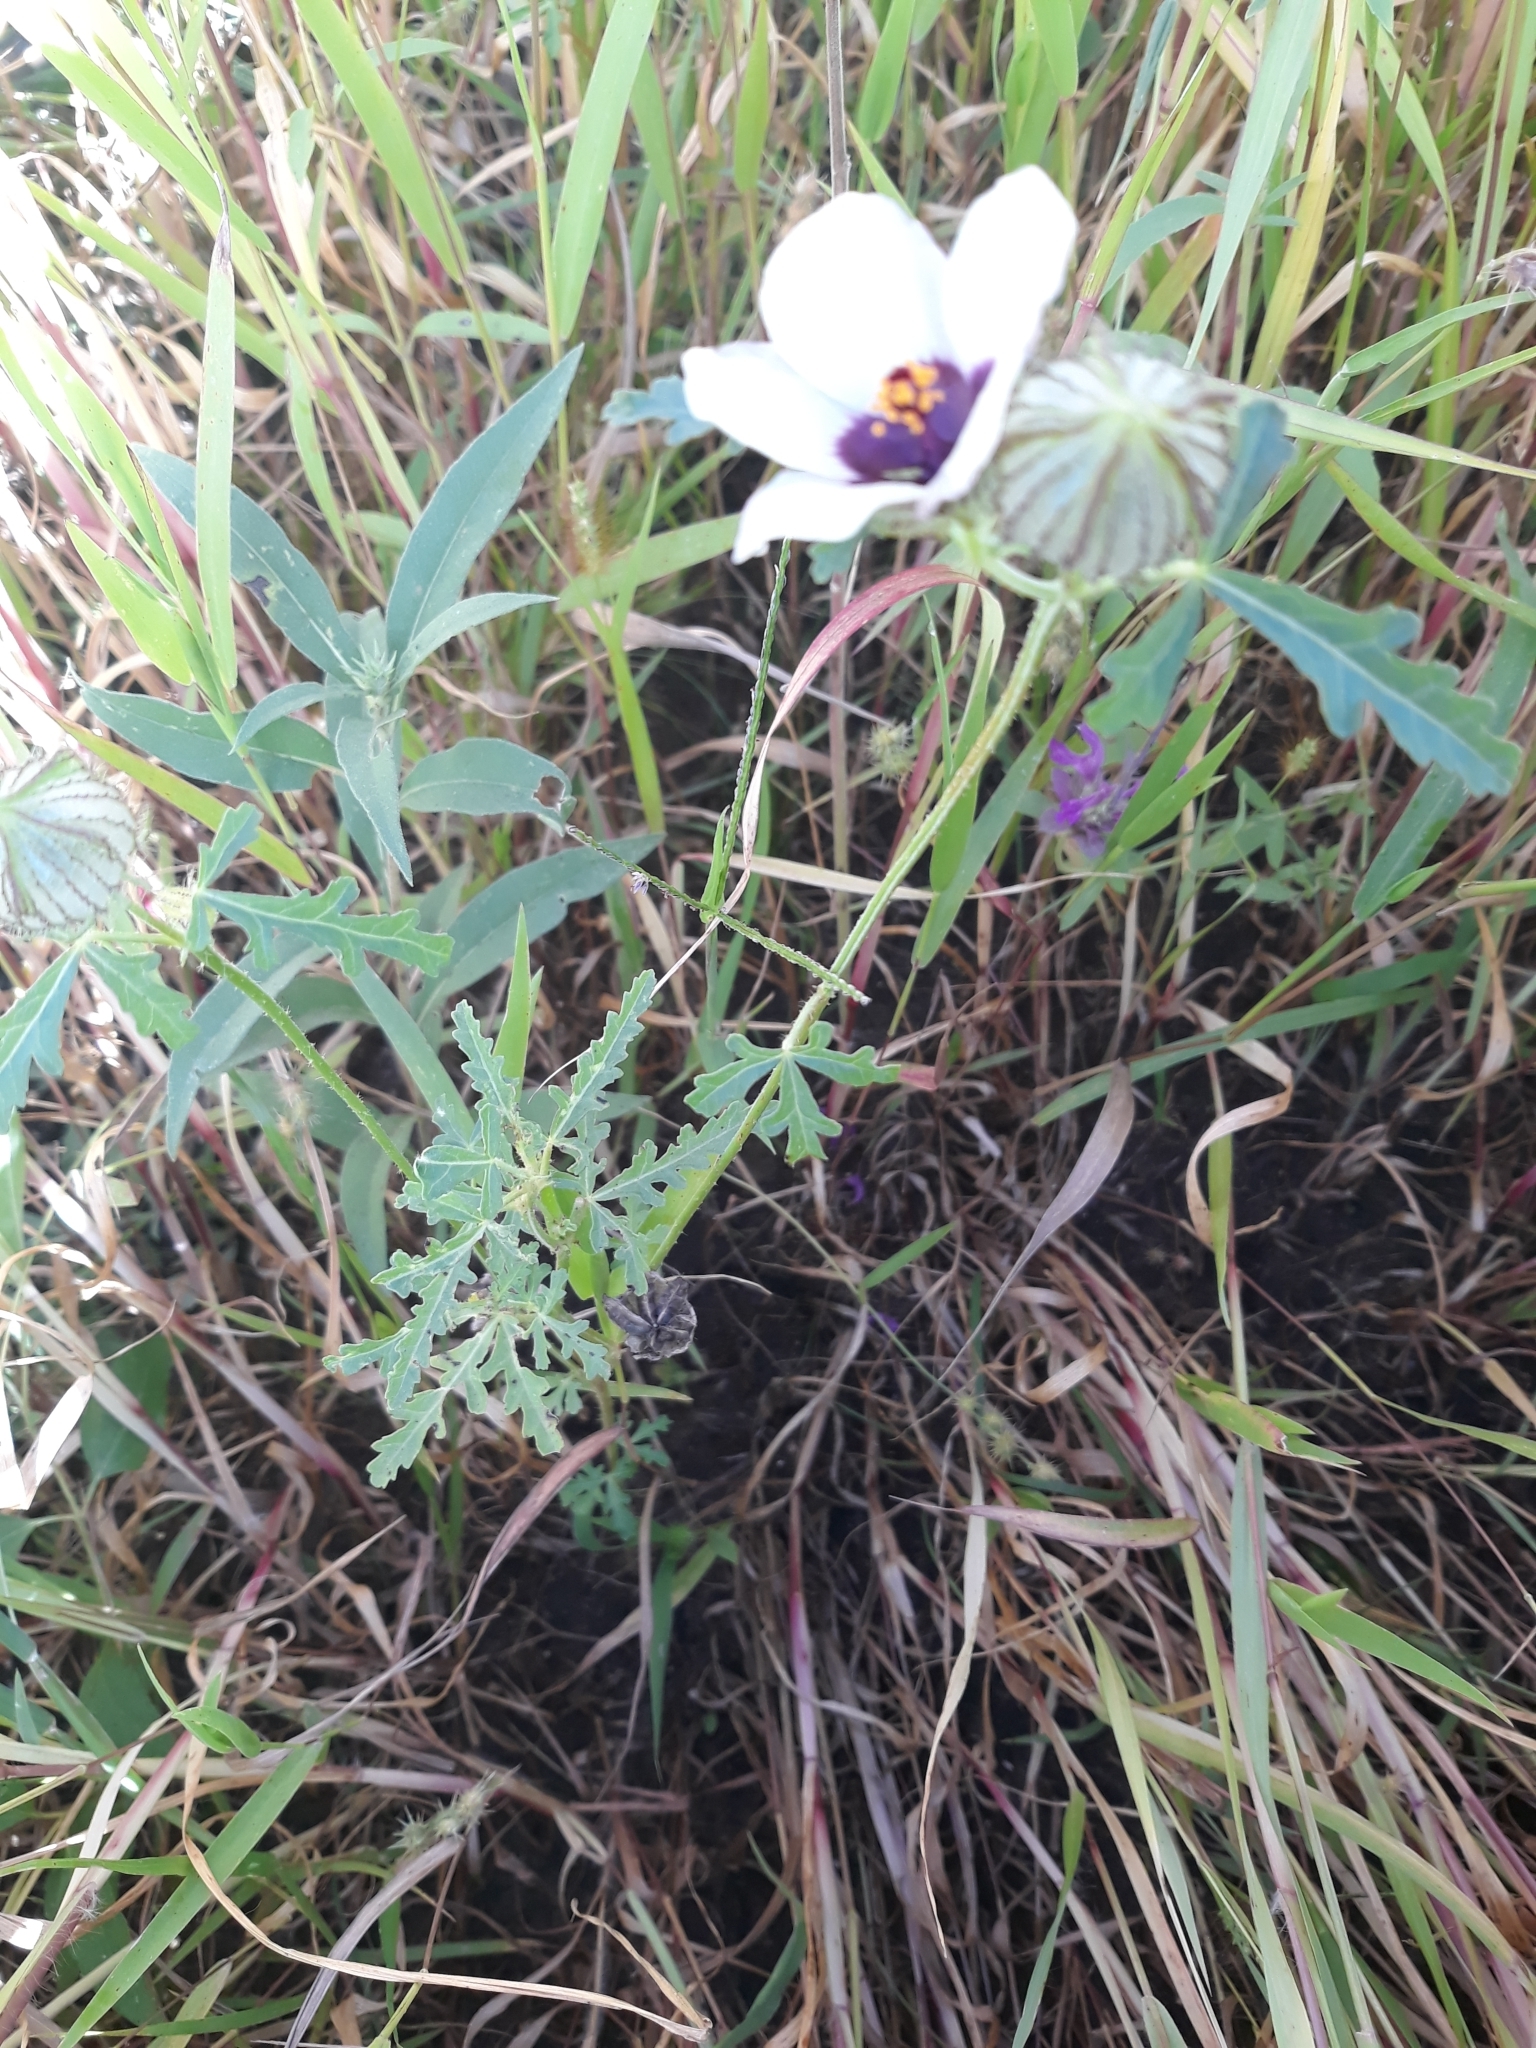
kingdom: Plantae
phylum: Tracheophyta
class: Magnoliopsida
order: Malvales
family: Malvaceae
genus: Hibiscus
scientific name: Hibiscus trionum
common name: Bladder ketmia
